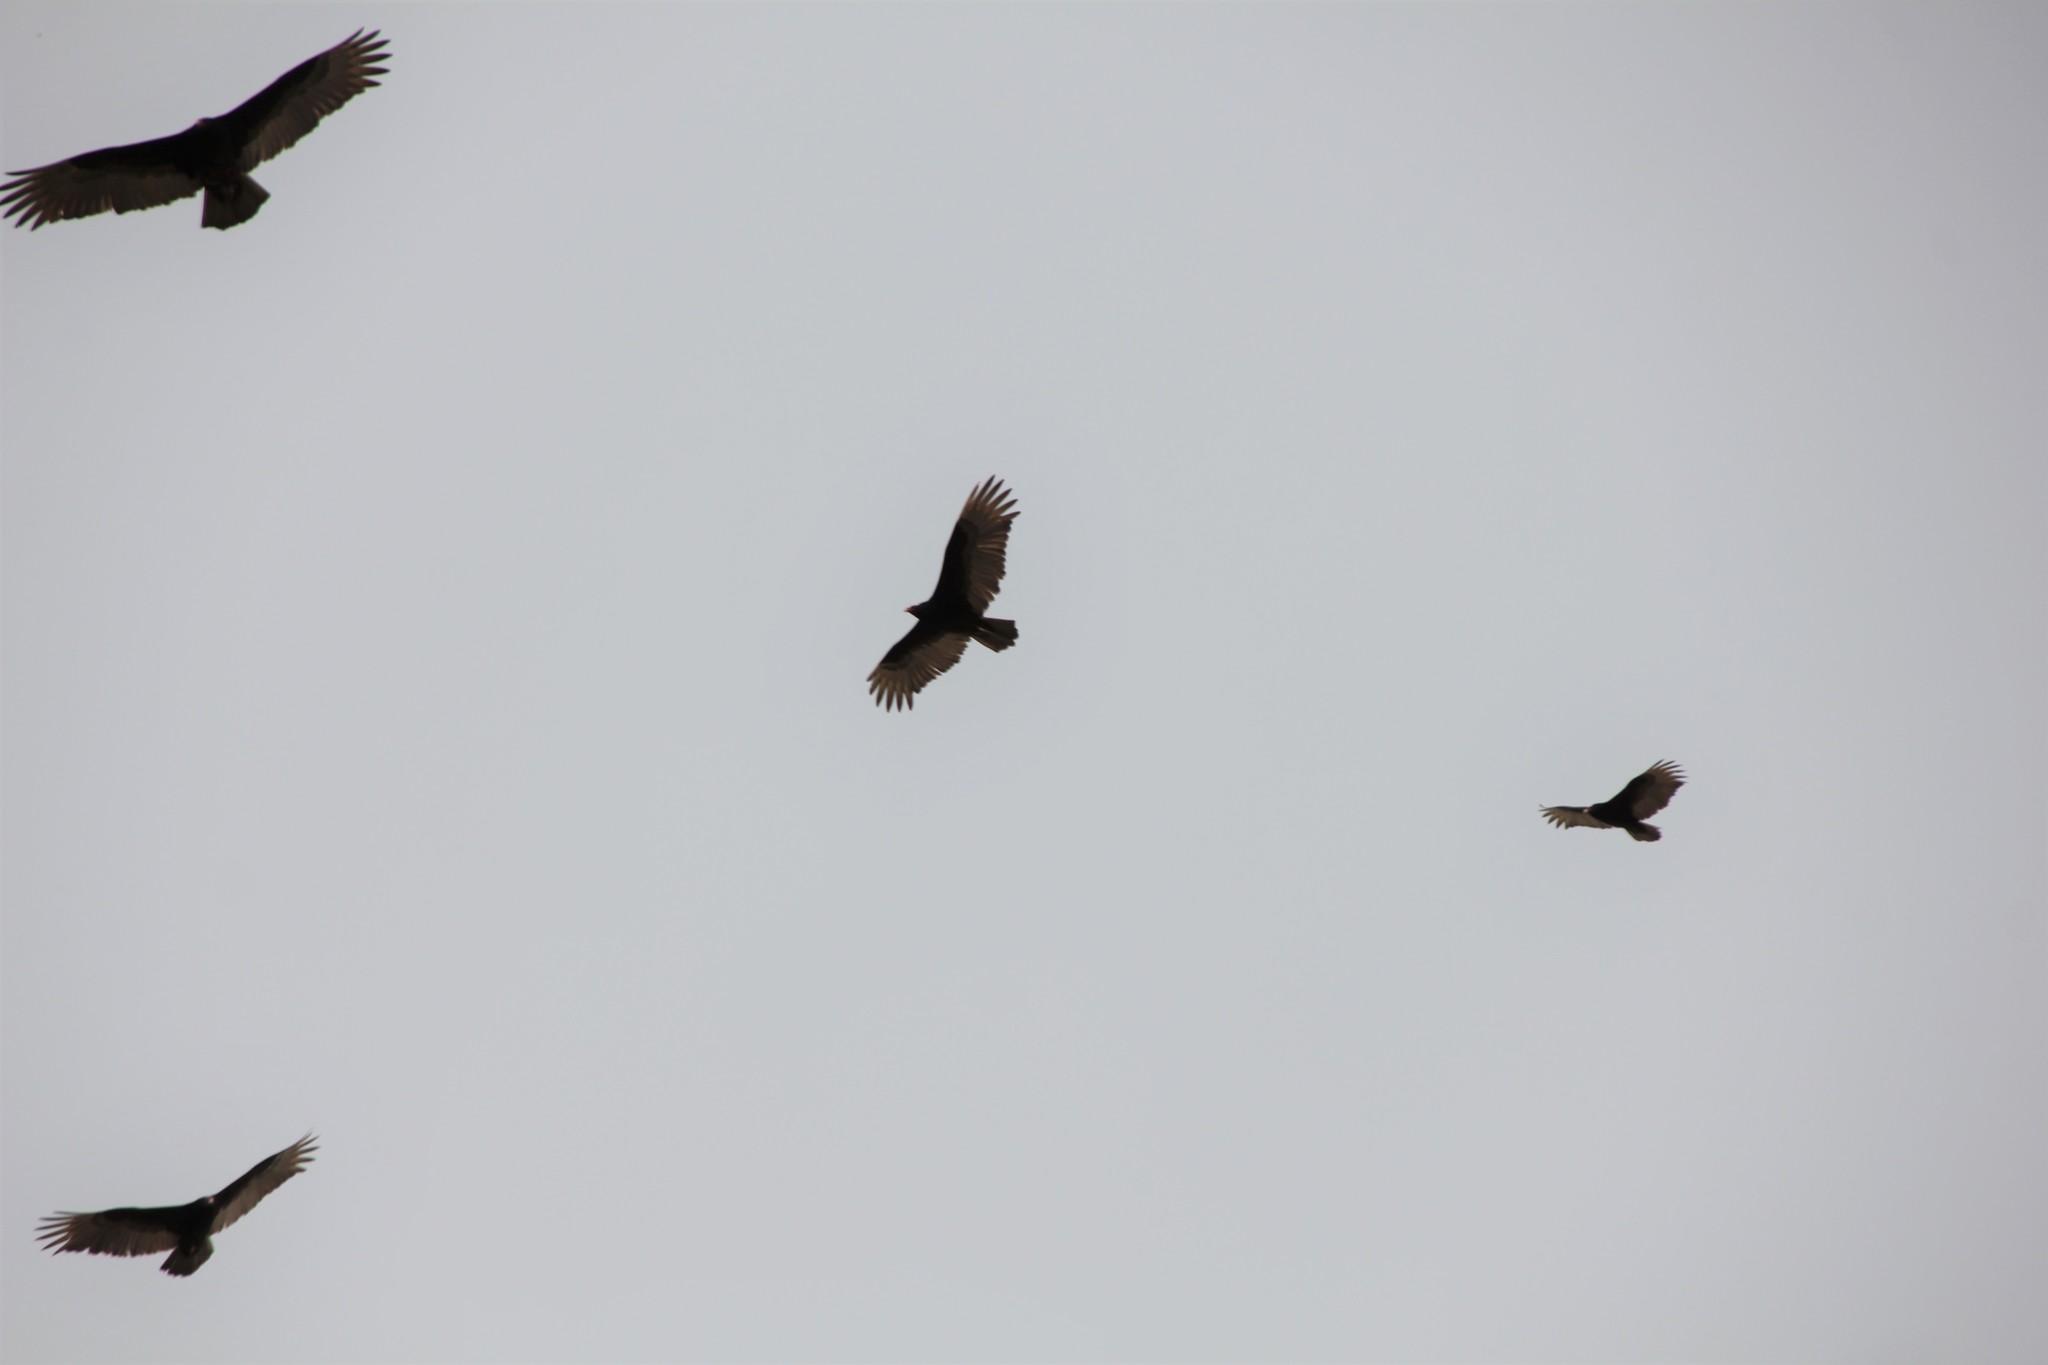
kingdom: Animalia
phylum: Chordata
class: Aves
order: Accipitriformes
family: Cathartidae
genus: Cathartes
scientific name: Cathartes aura
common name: Turkey vulture
